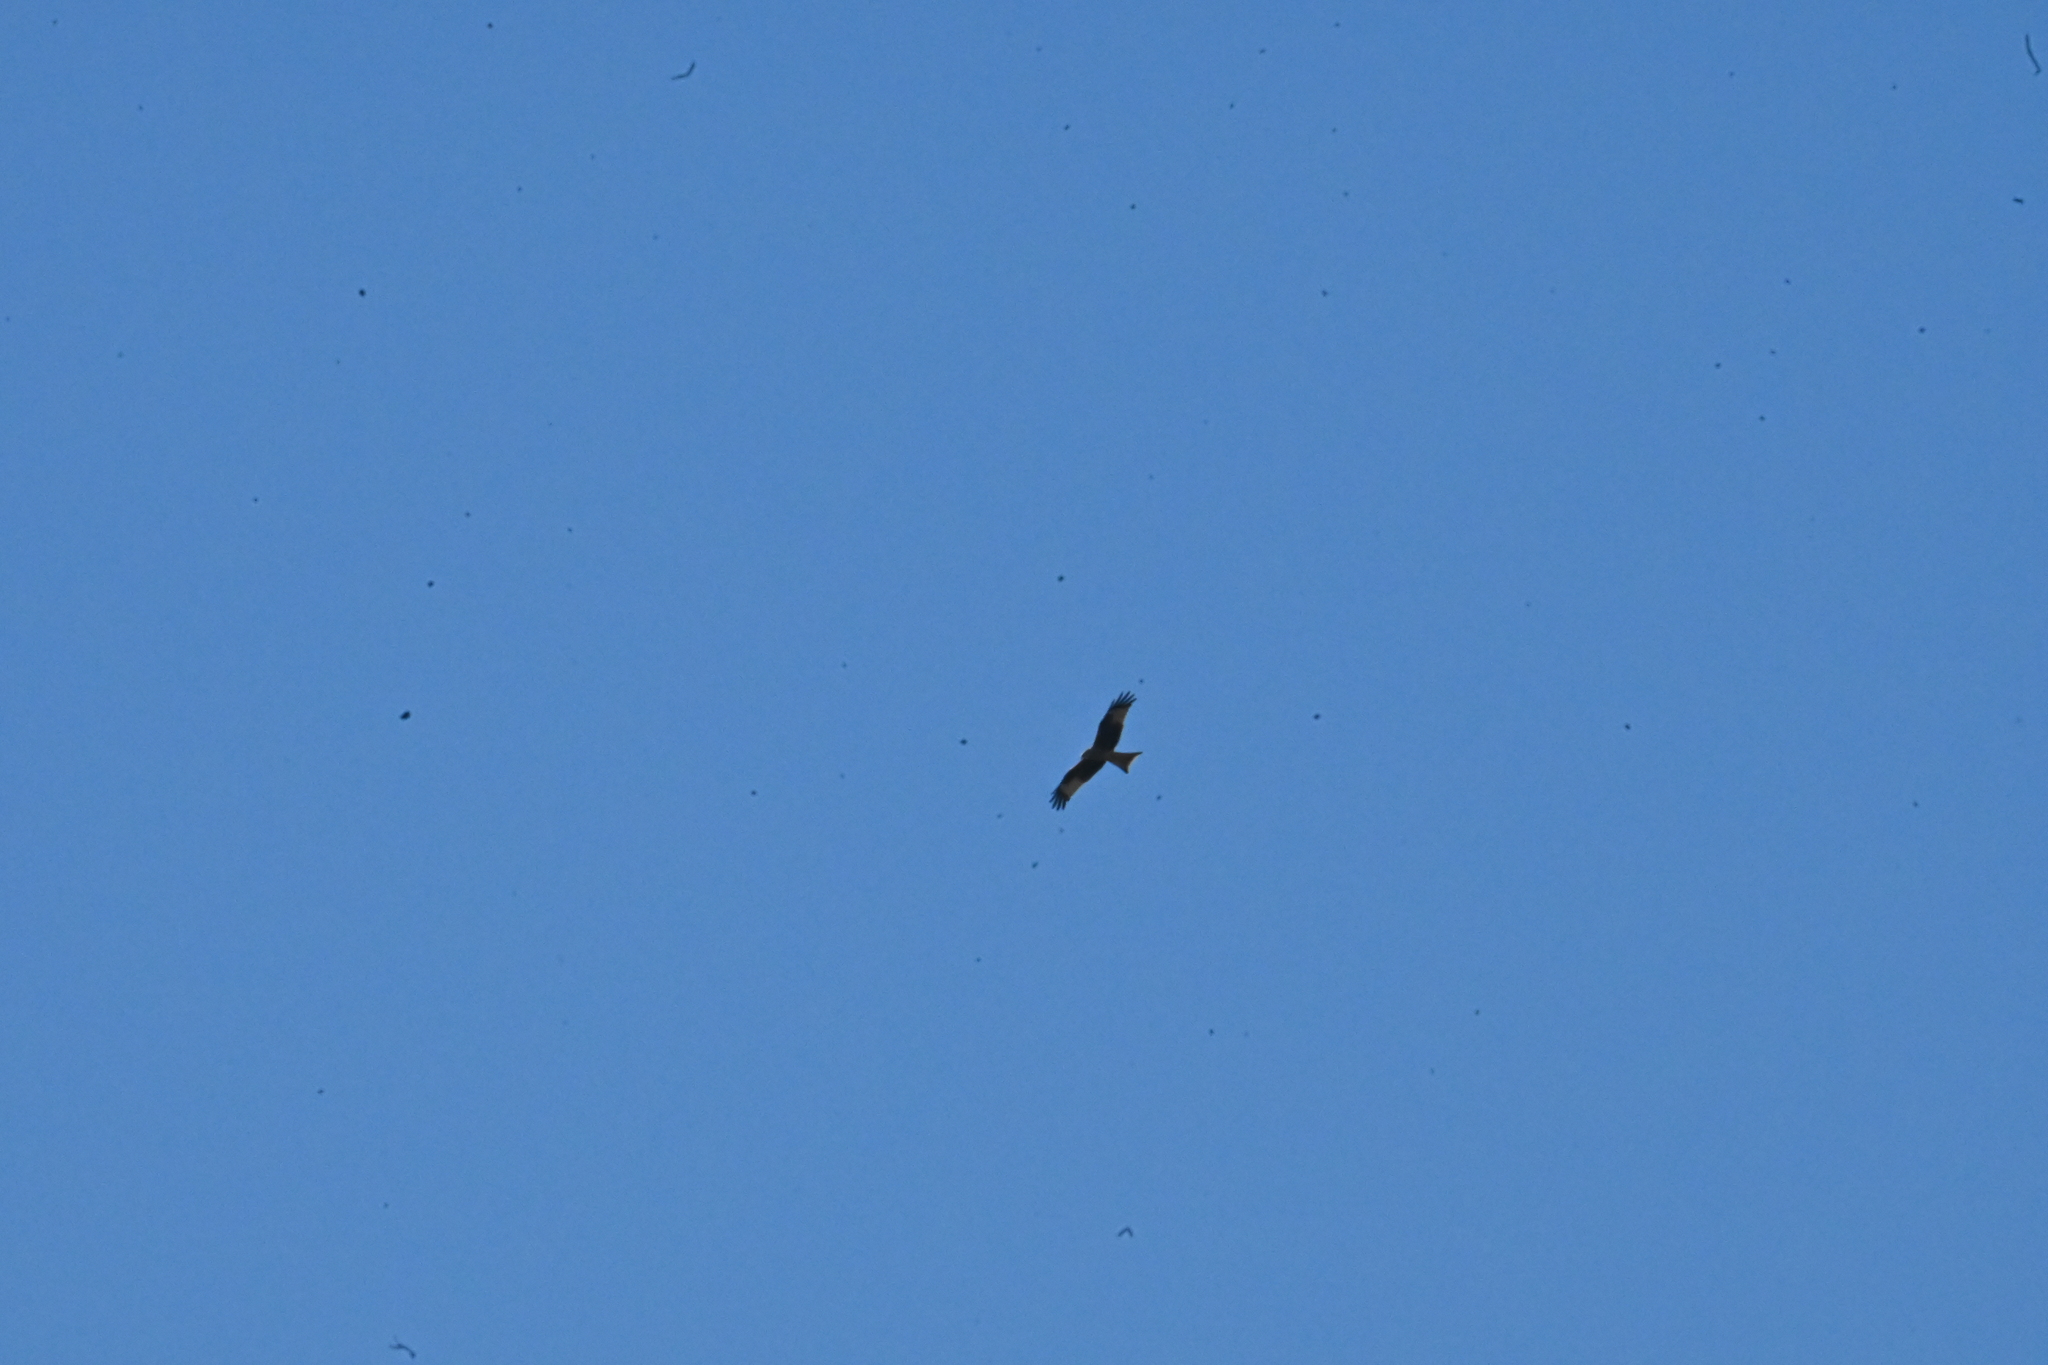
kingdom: Animalia
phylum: Chordata
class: Aves
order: Accipitriformes
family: Accipitridae
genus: Milvus
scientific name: Milvus milvus
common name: Red kite
